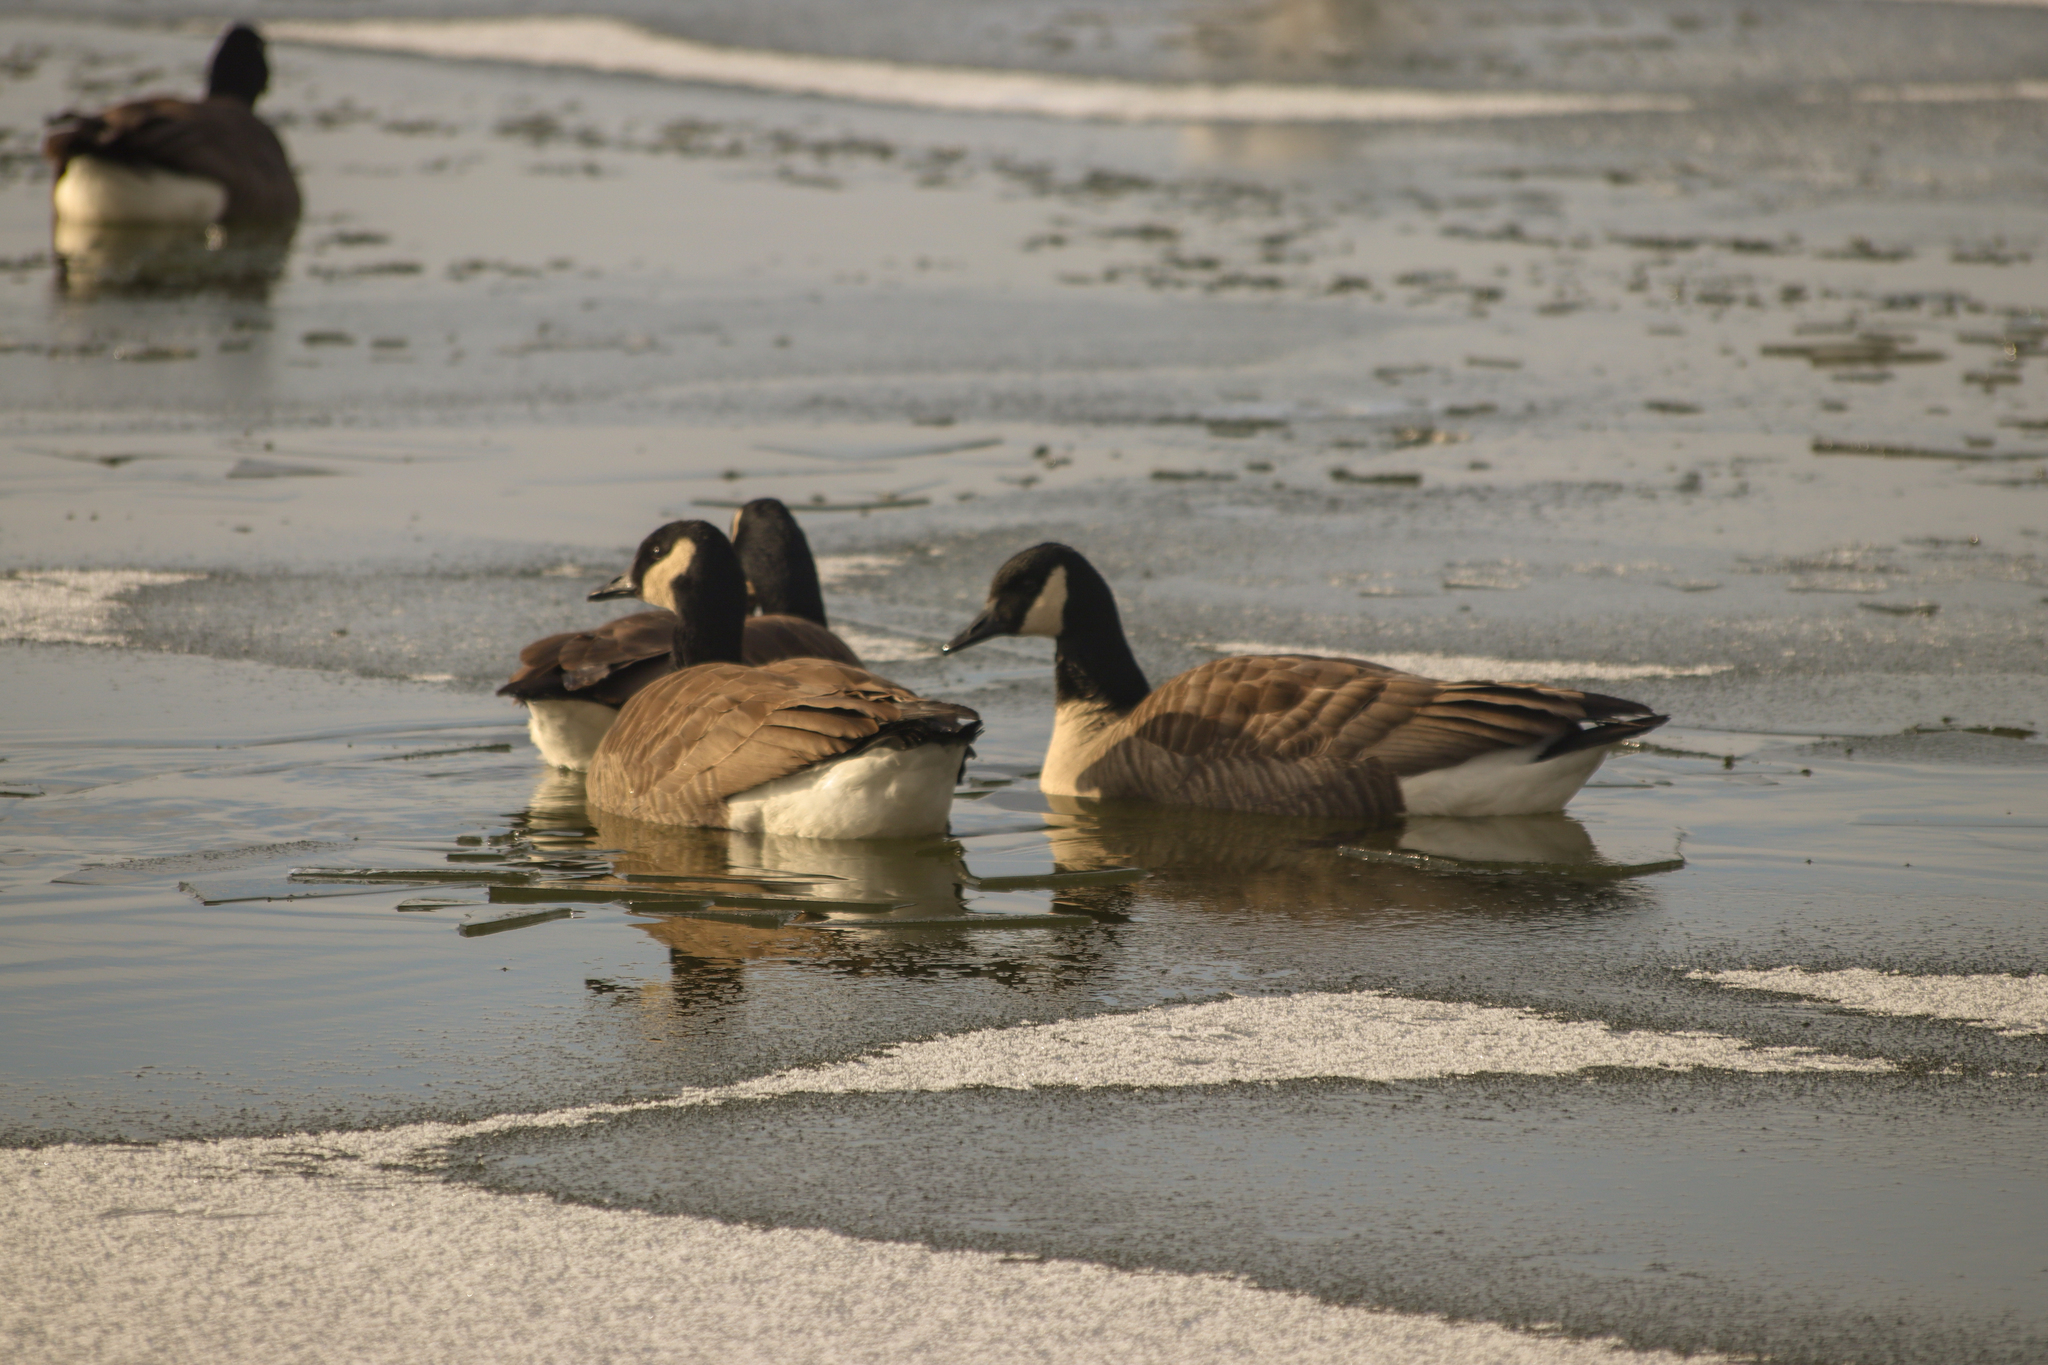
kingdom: Animalia
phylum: Chordata
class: Aves
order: Anseriformes
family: Anatidae
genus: Branta
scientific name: Branta canadensis
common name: Canada goose
